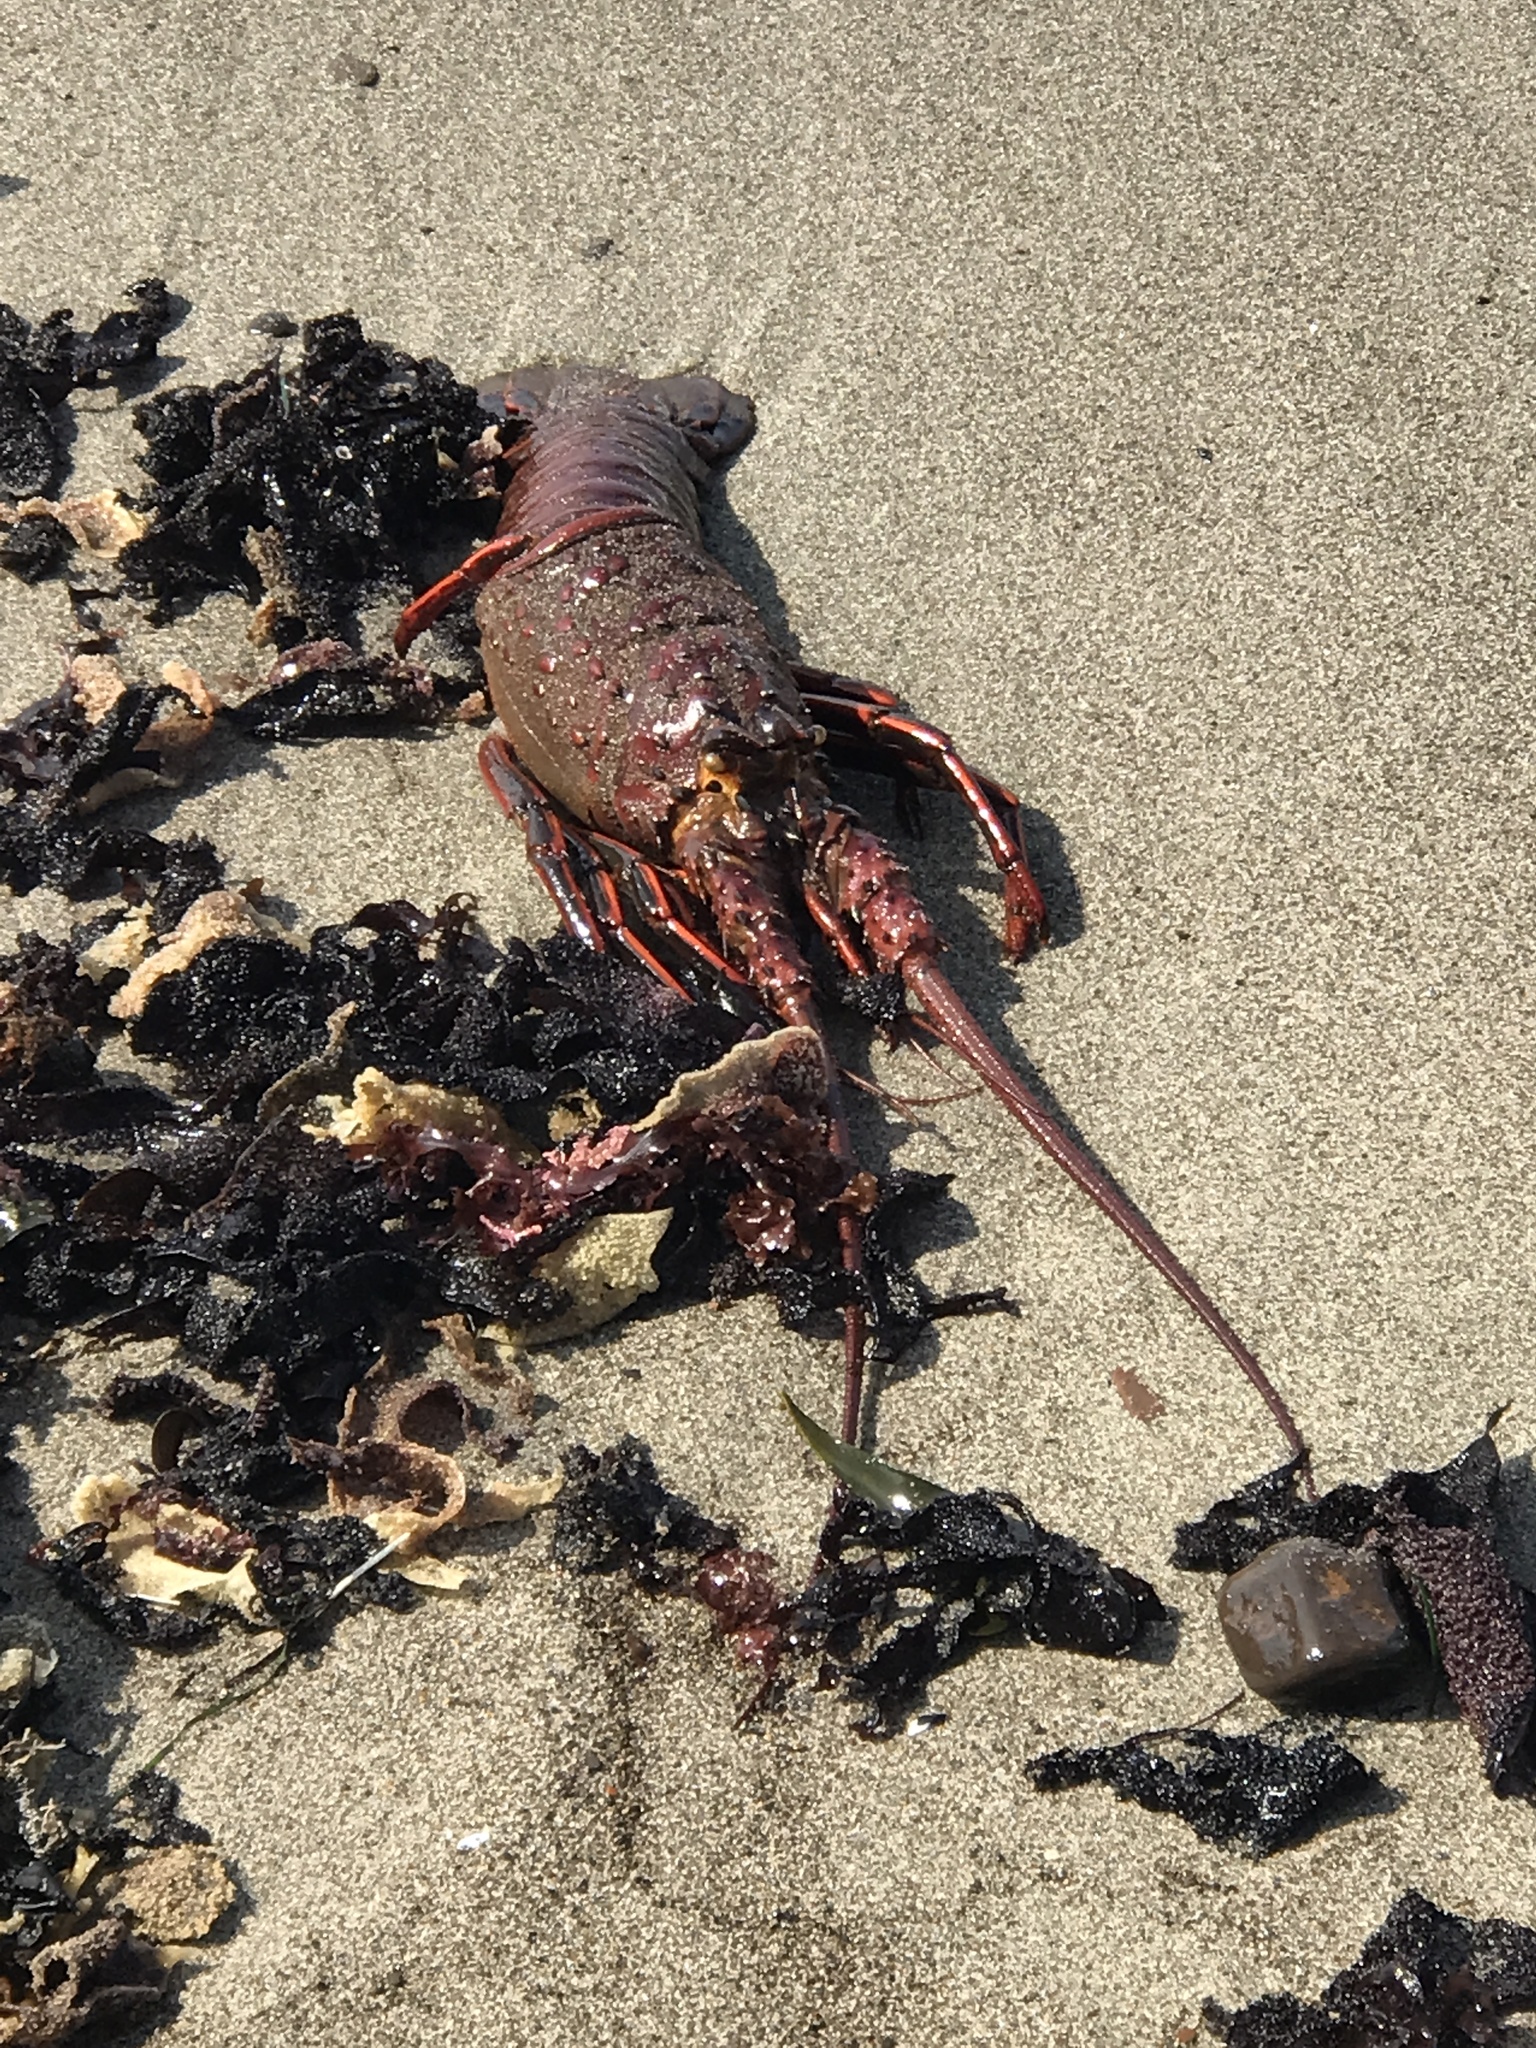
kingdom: Animalia
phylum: Arthropoda
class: Malacostraca
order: Decapoda
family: Palinuridae
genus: Panulirus
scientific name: Panulirus interruptus
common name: California spiny lobster
